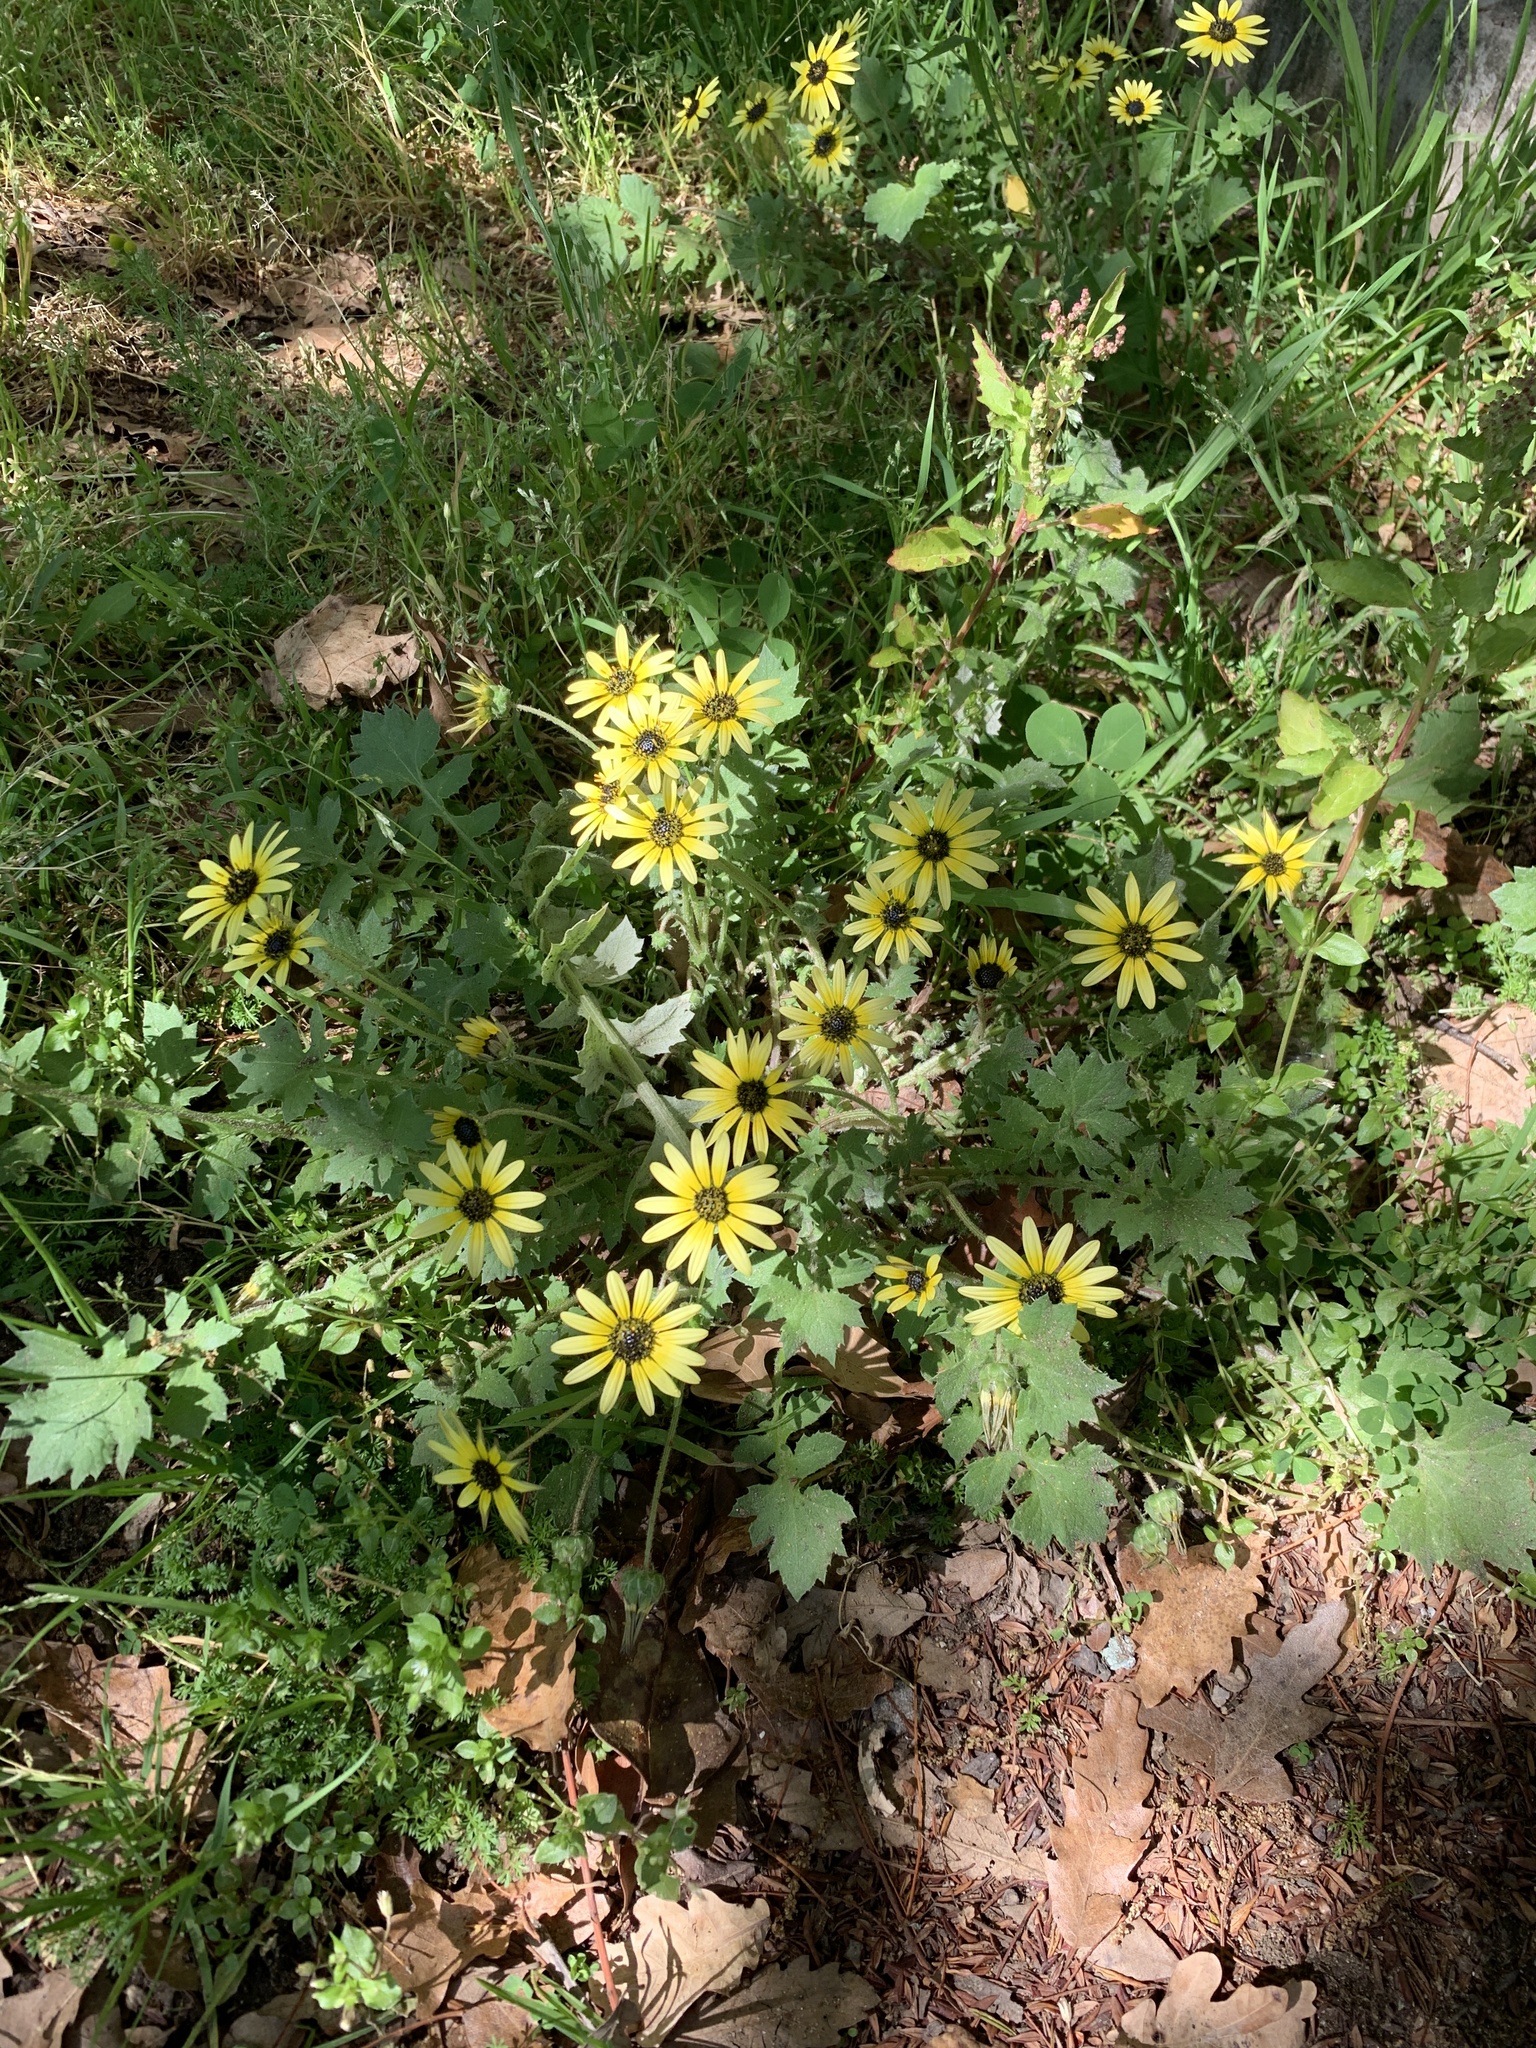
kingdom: Plantae
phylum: Tracheophyta
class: Magnoliopsida
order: Asterales
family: Asteraceae
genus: Arctotheca
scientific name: Arctotheca calendula
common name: Capeweed
